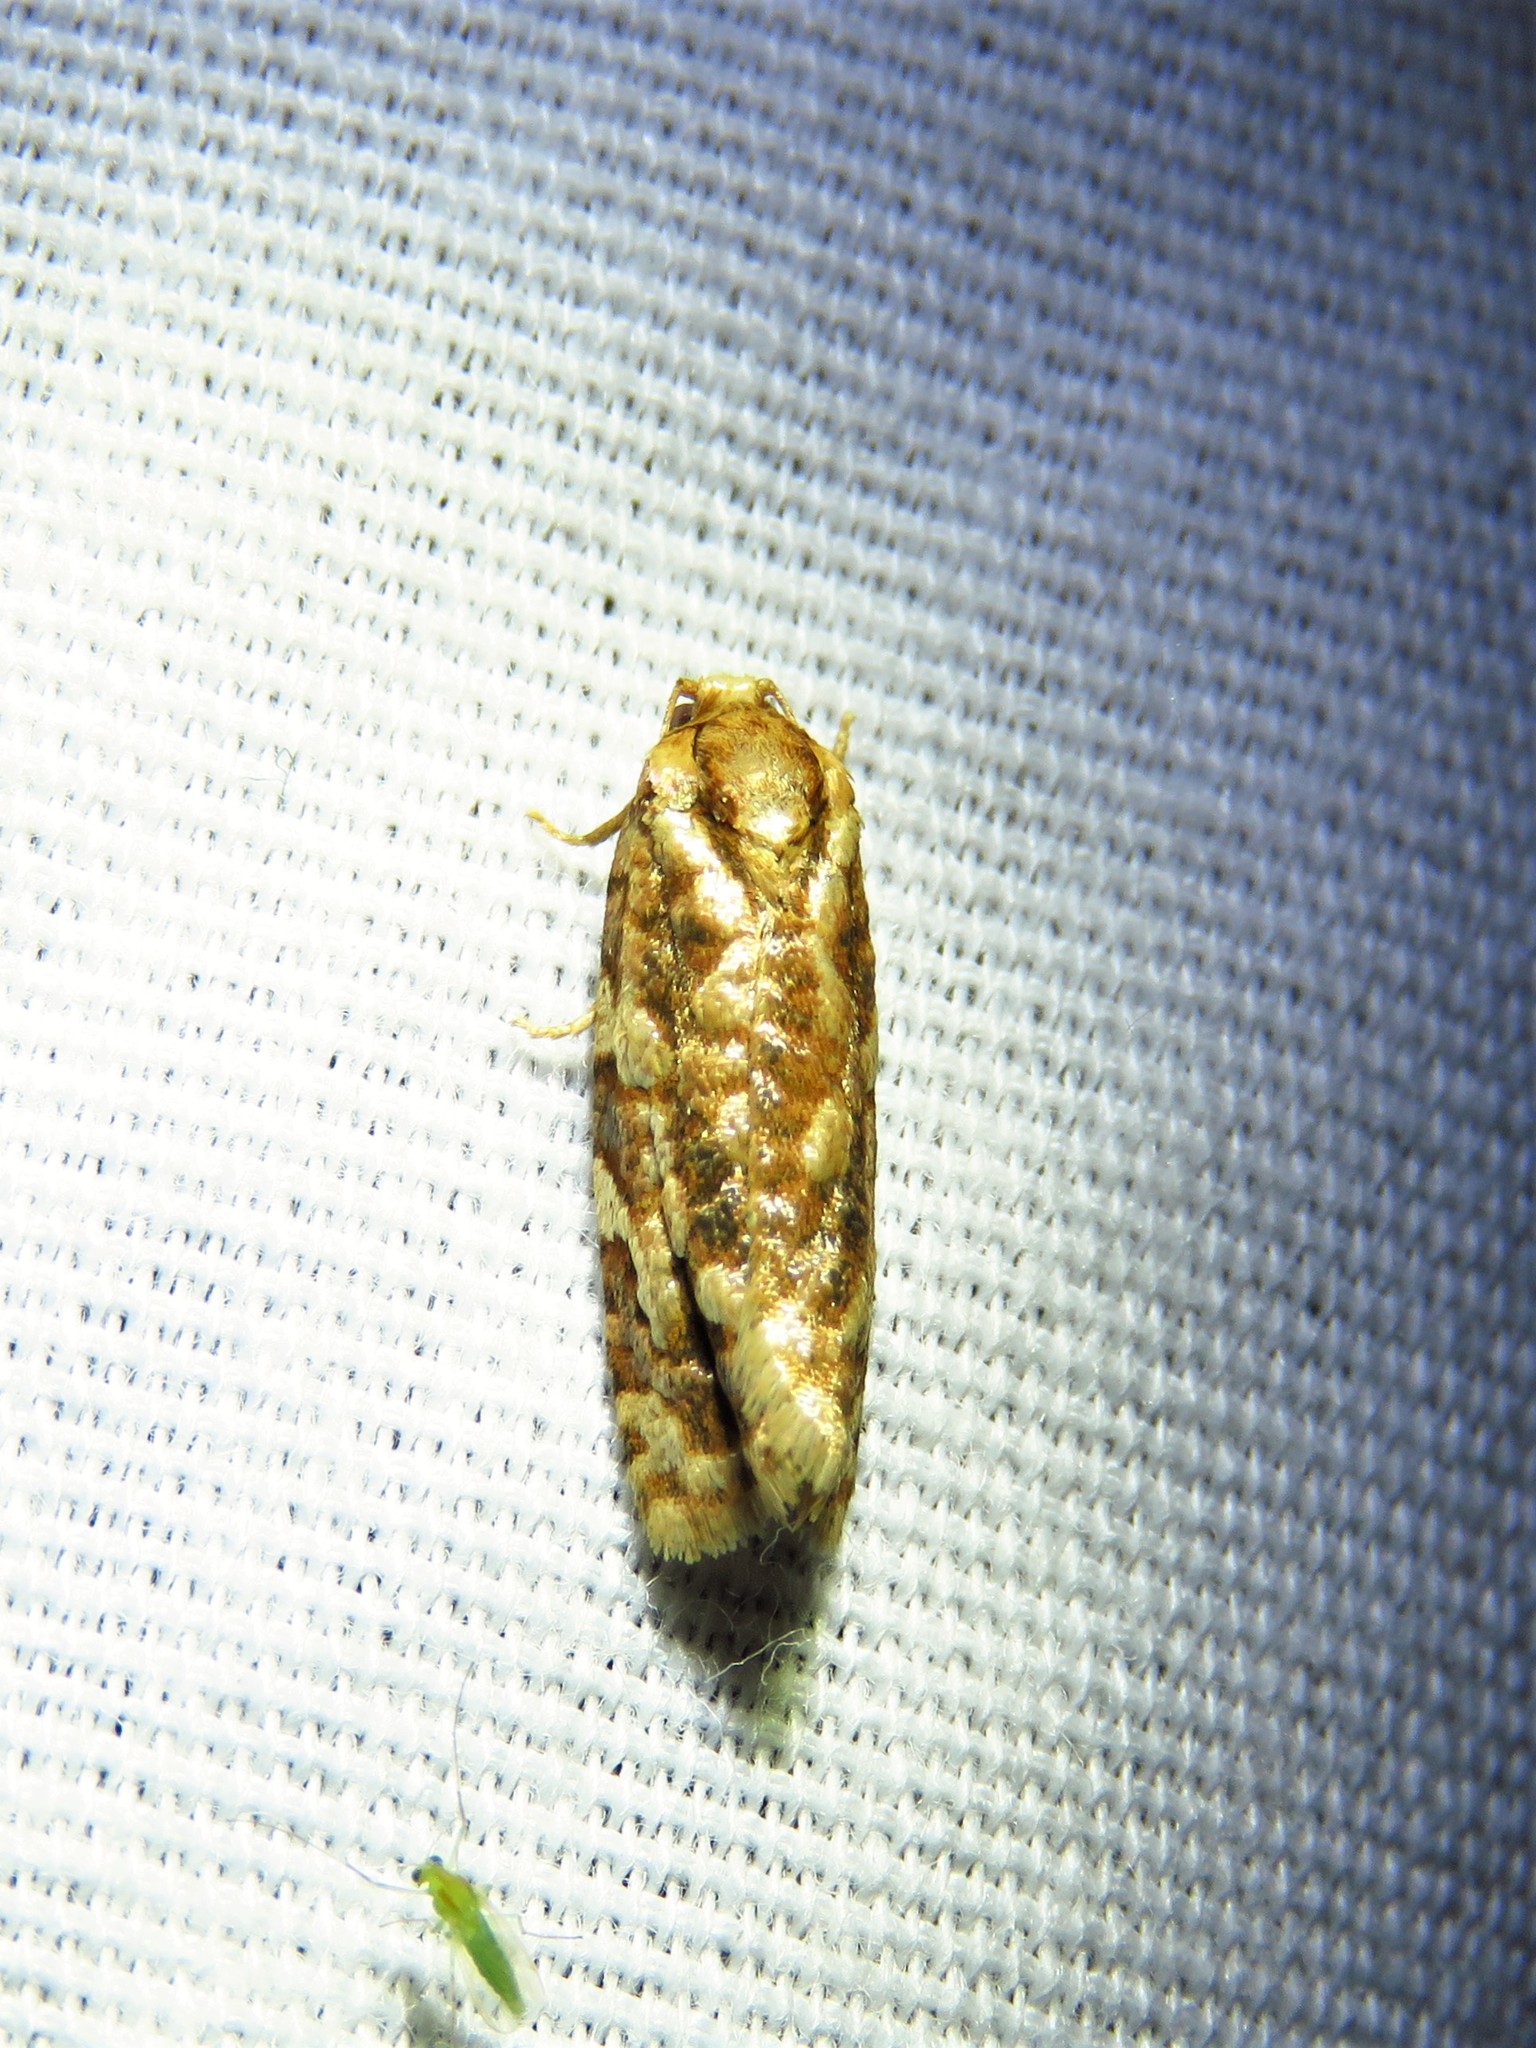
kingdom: Animalia
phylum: Arthropoda
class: Insecta
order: Lepidoptera
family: Tortricidae
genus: Choristoneura
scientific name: Choristoneura houstonana
